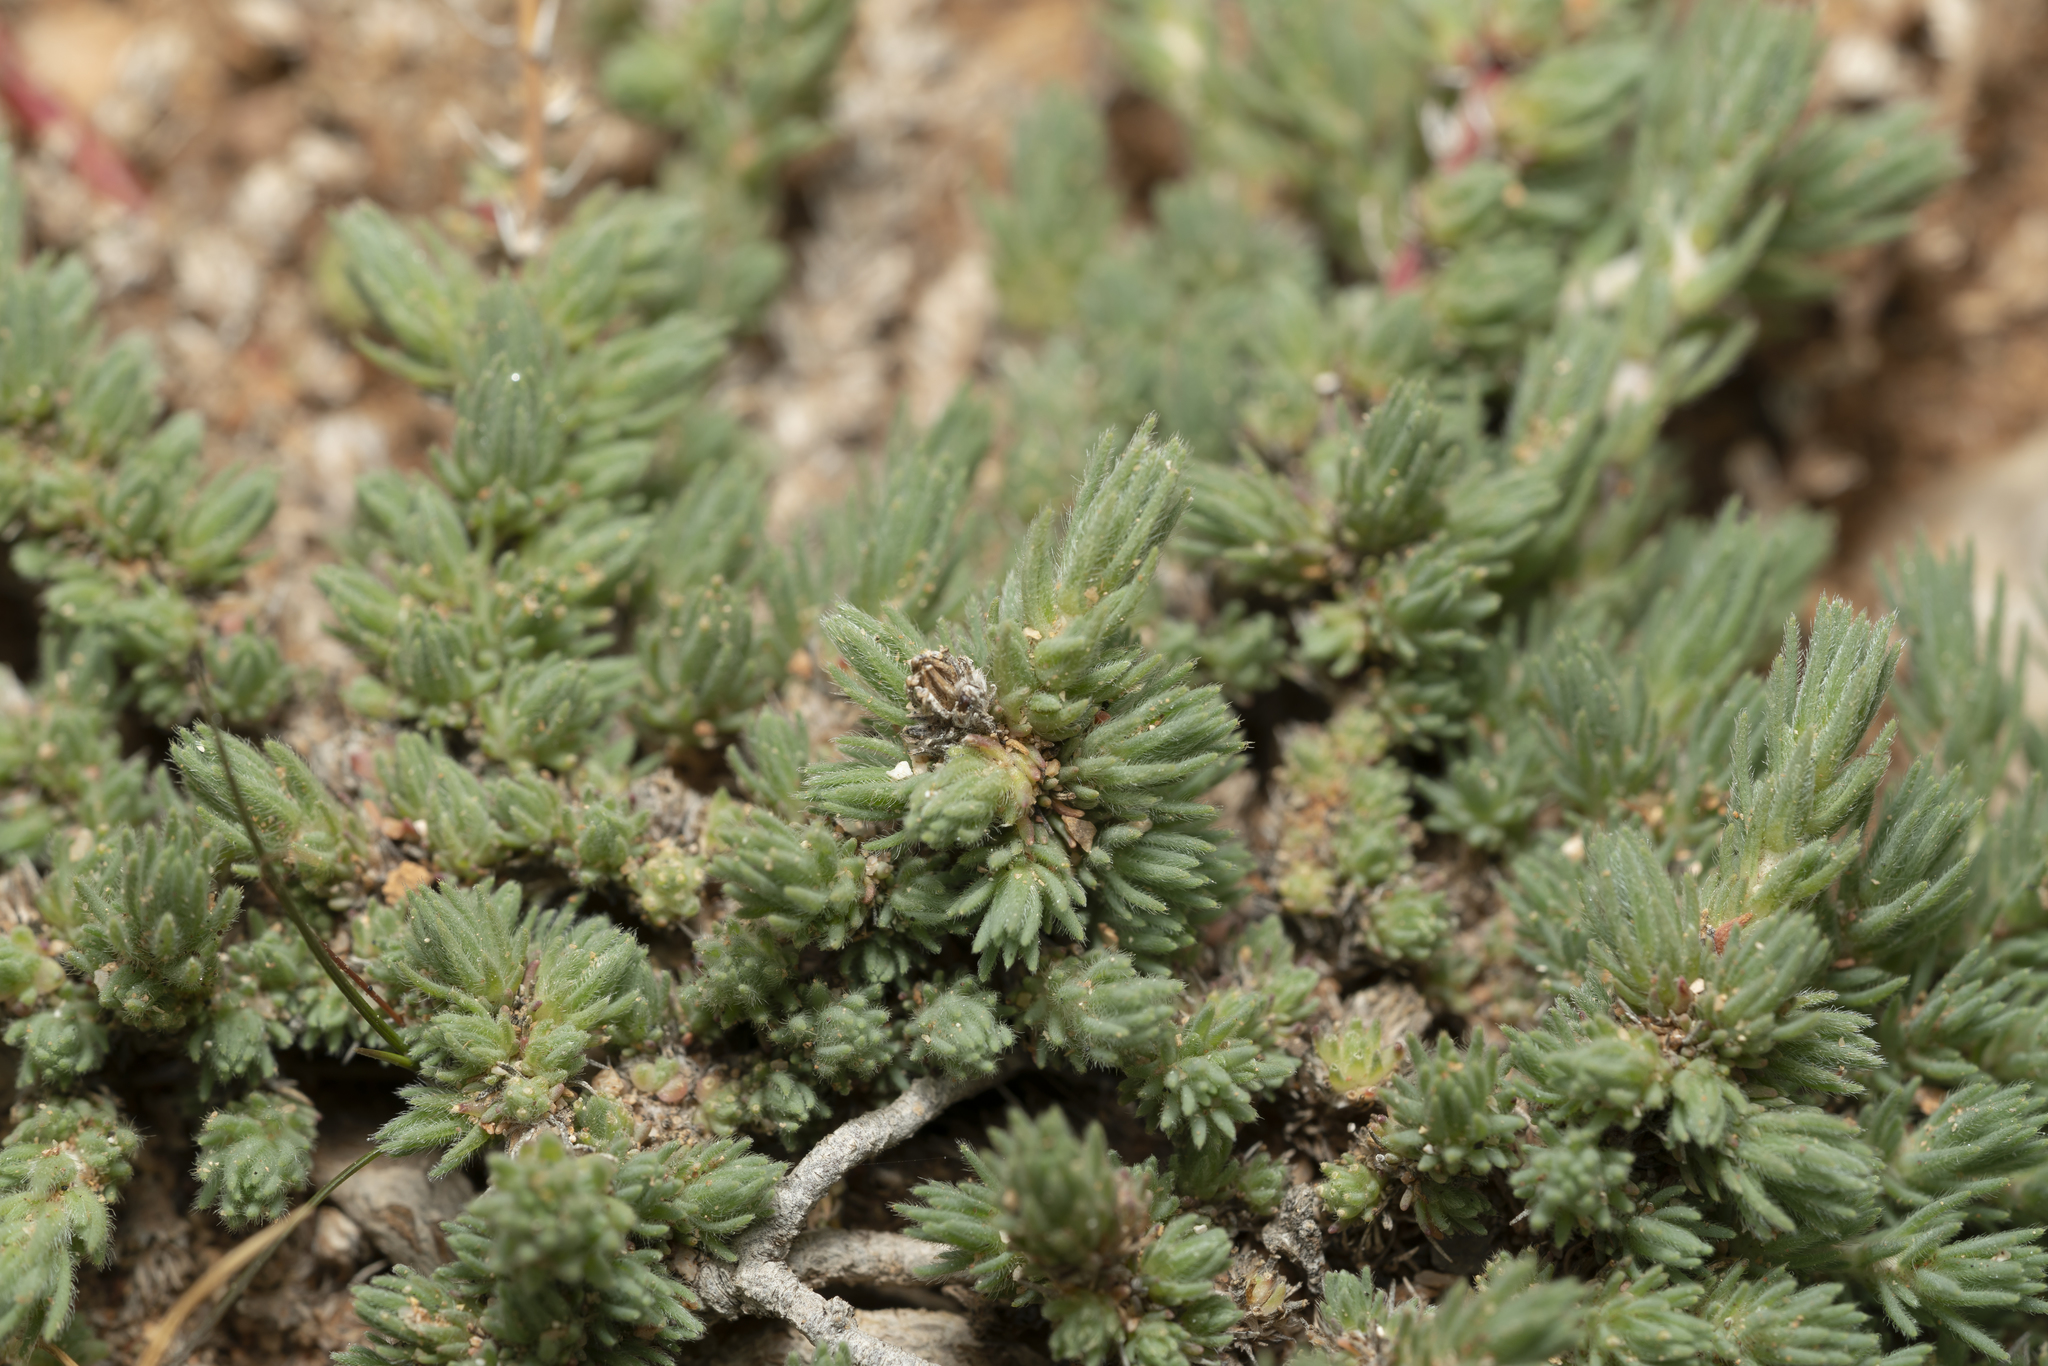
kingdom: Plantae
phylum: Tracheophyta
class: Magnoliopsida
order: Caryophyllales
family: Amaranthaceae
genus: Camphorosma
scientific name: Camphorosma monspeliaca
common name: Camphorfume
